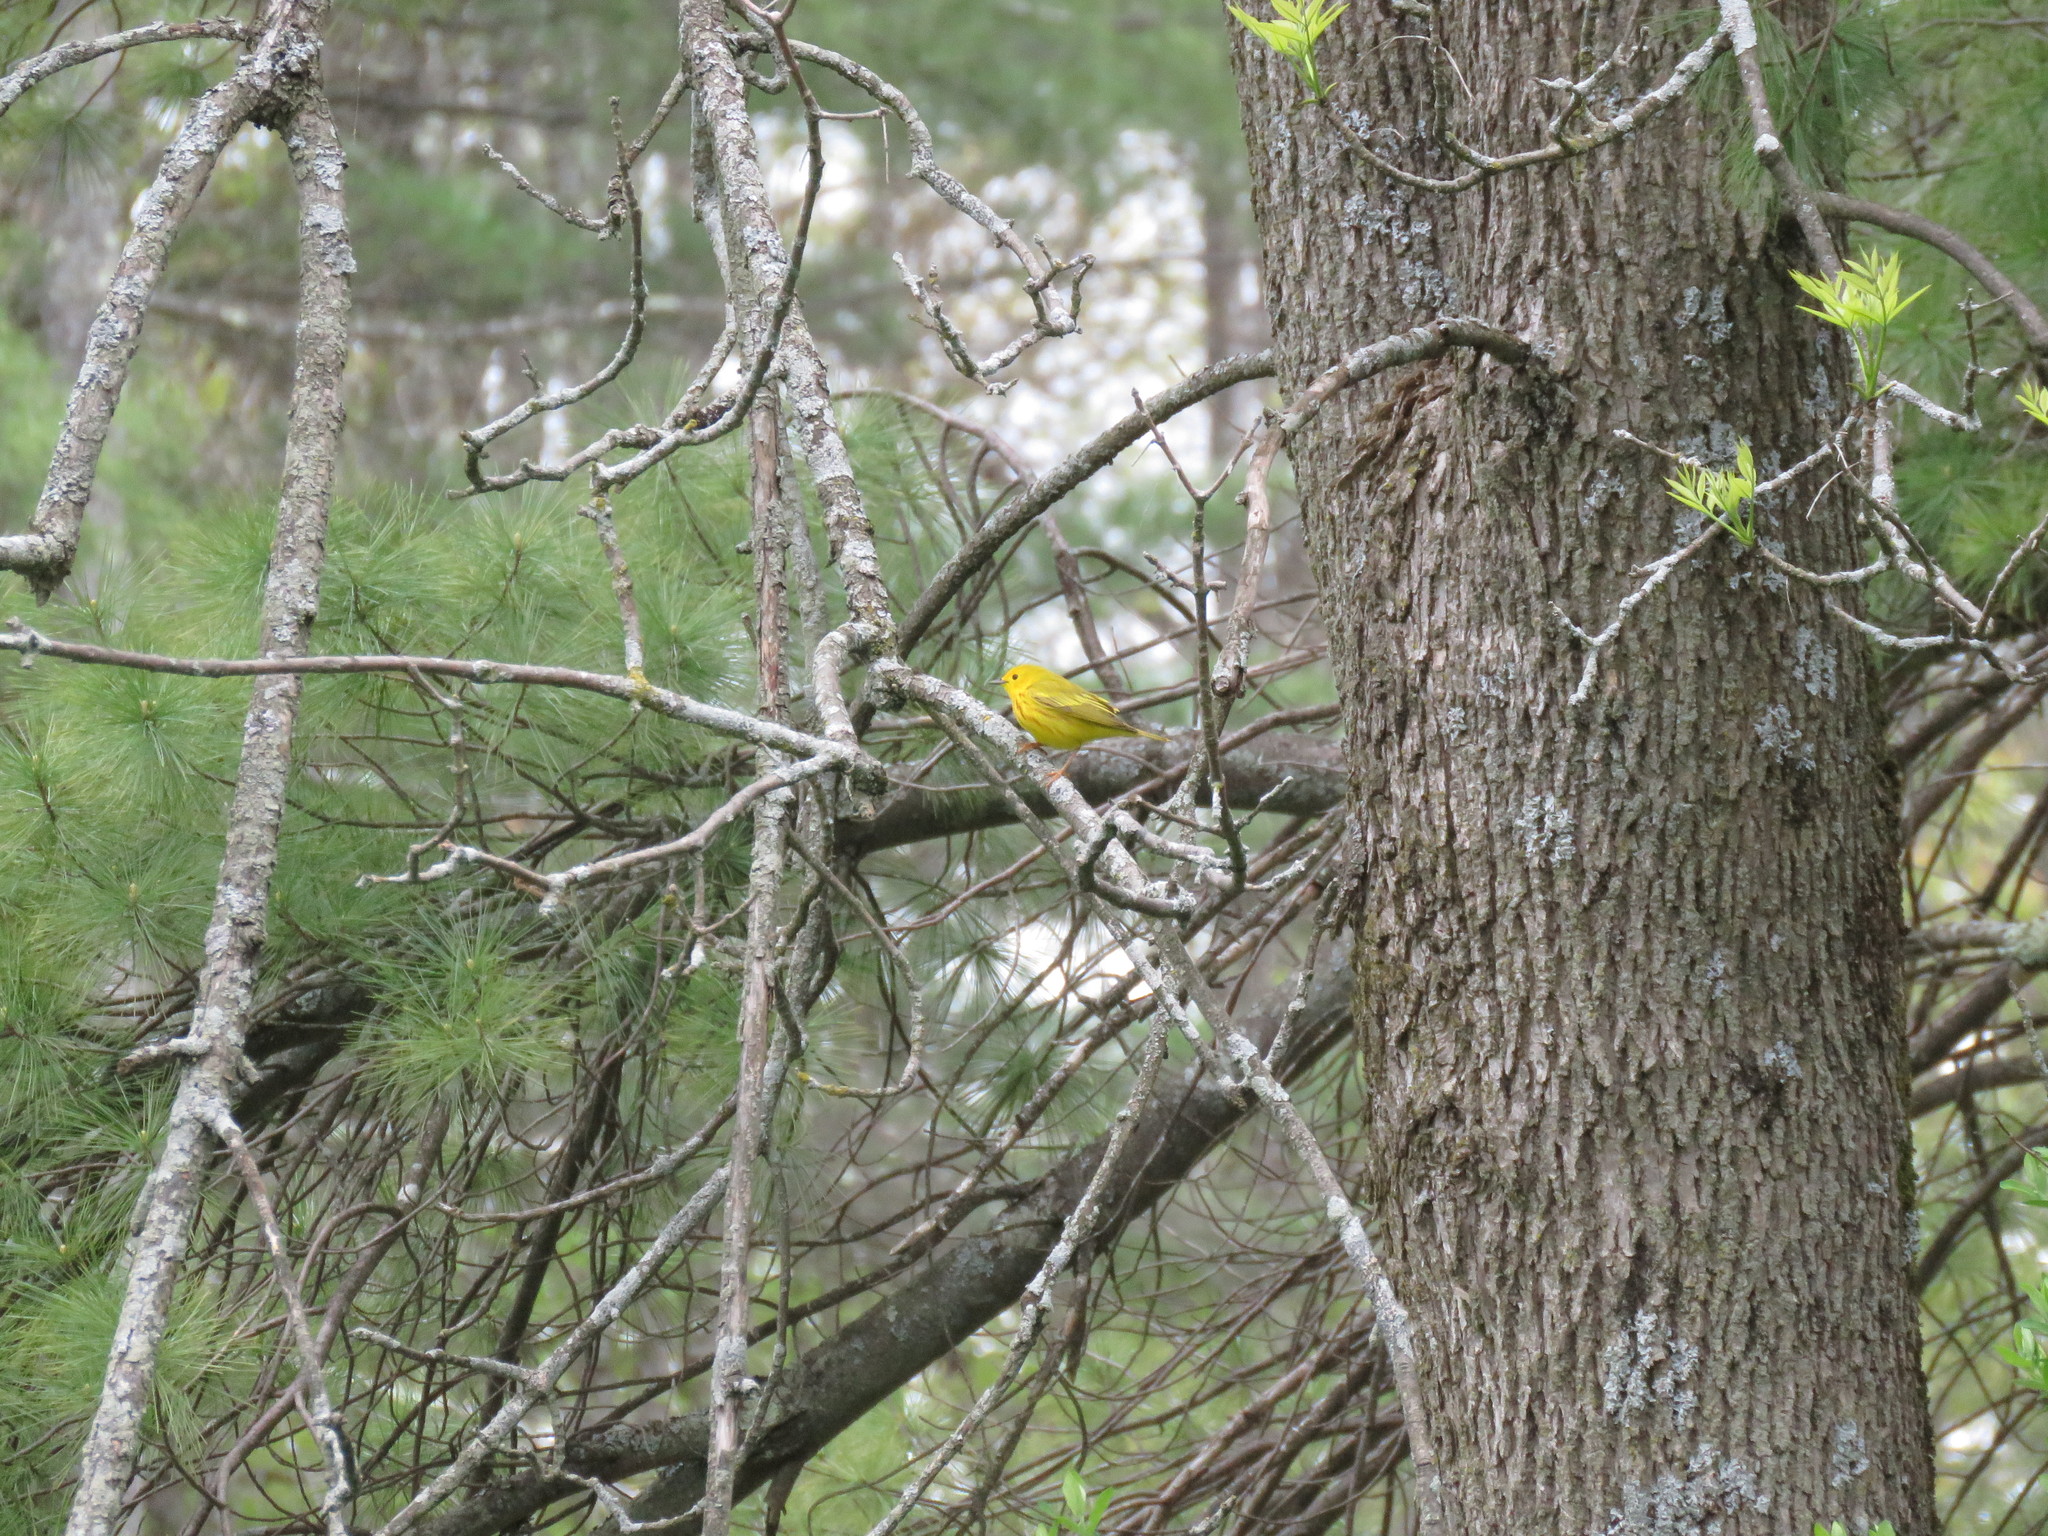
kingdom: Animalia
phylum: Chordata
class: Aves
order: Passeriformes
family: Parulidae
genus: Setophaga
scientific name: Setophaga petechia
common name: Yellow warbler
